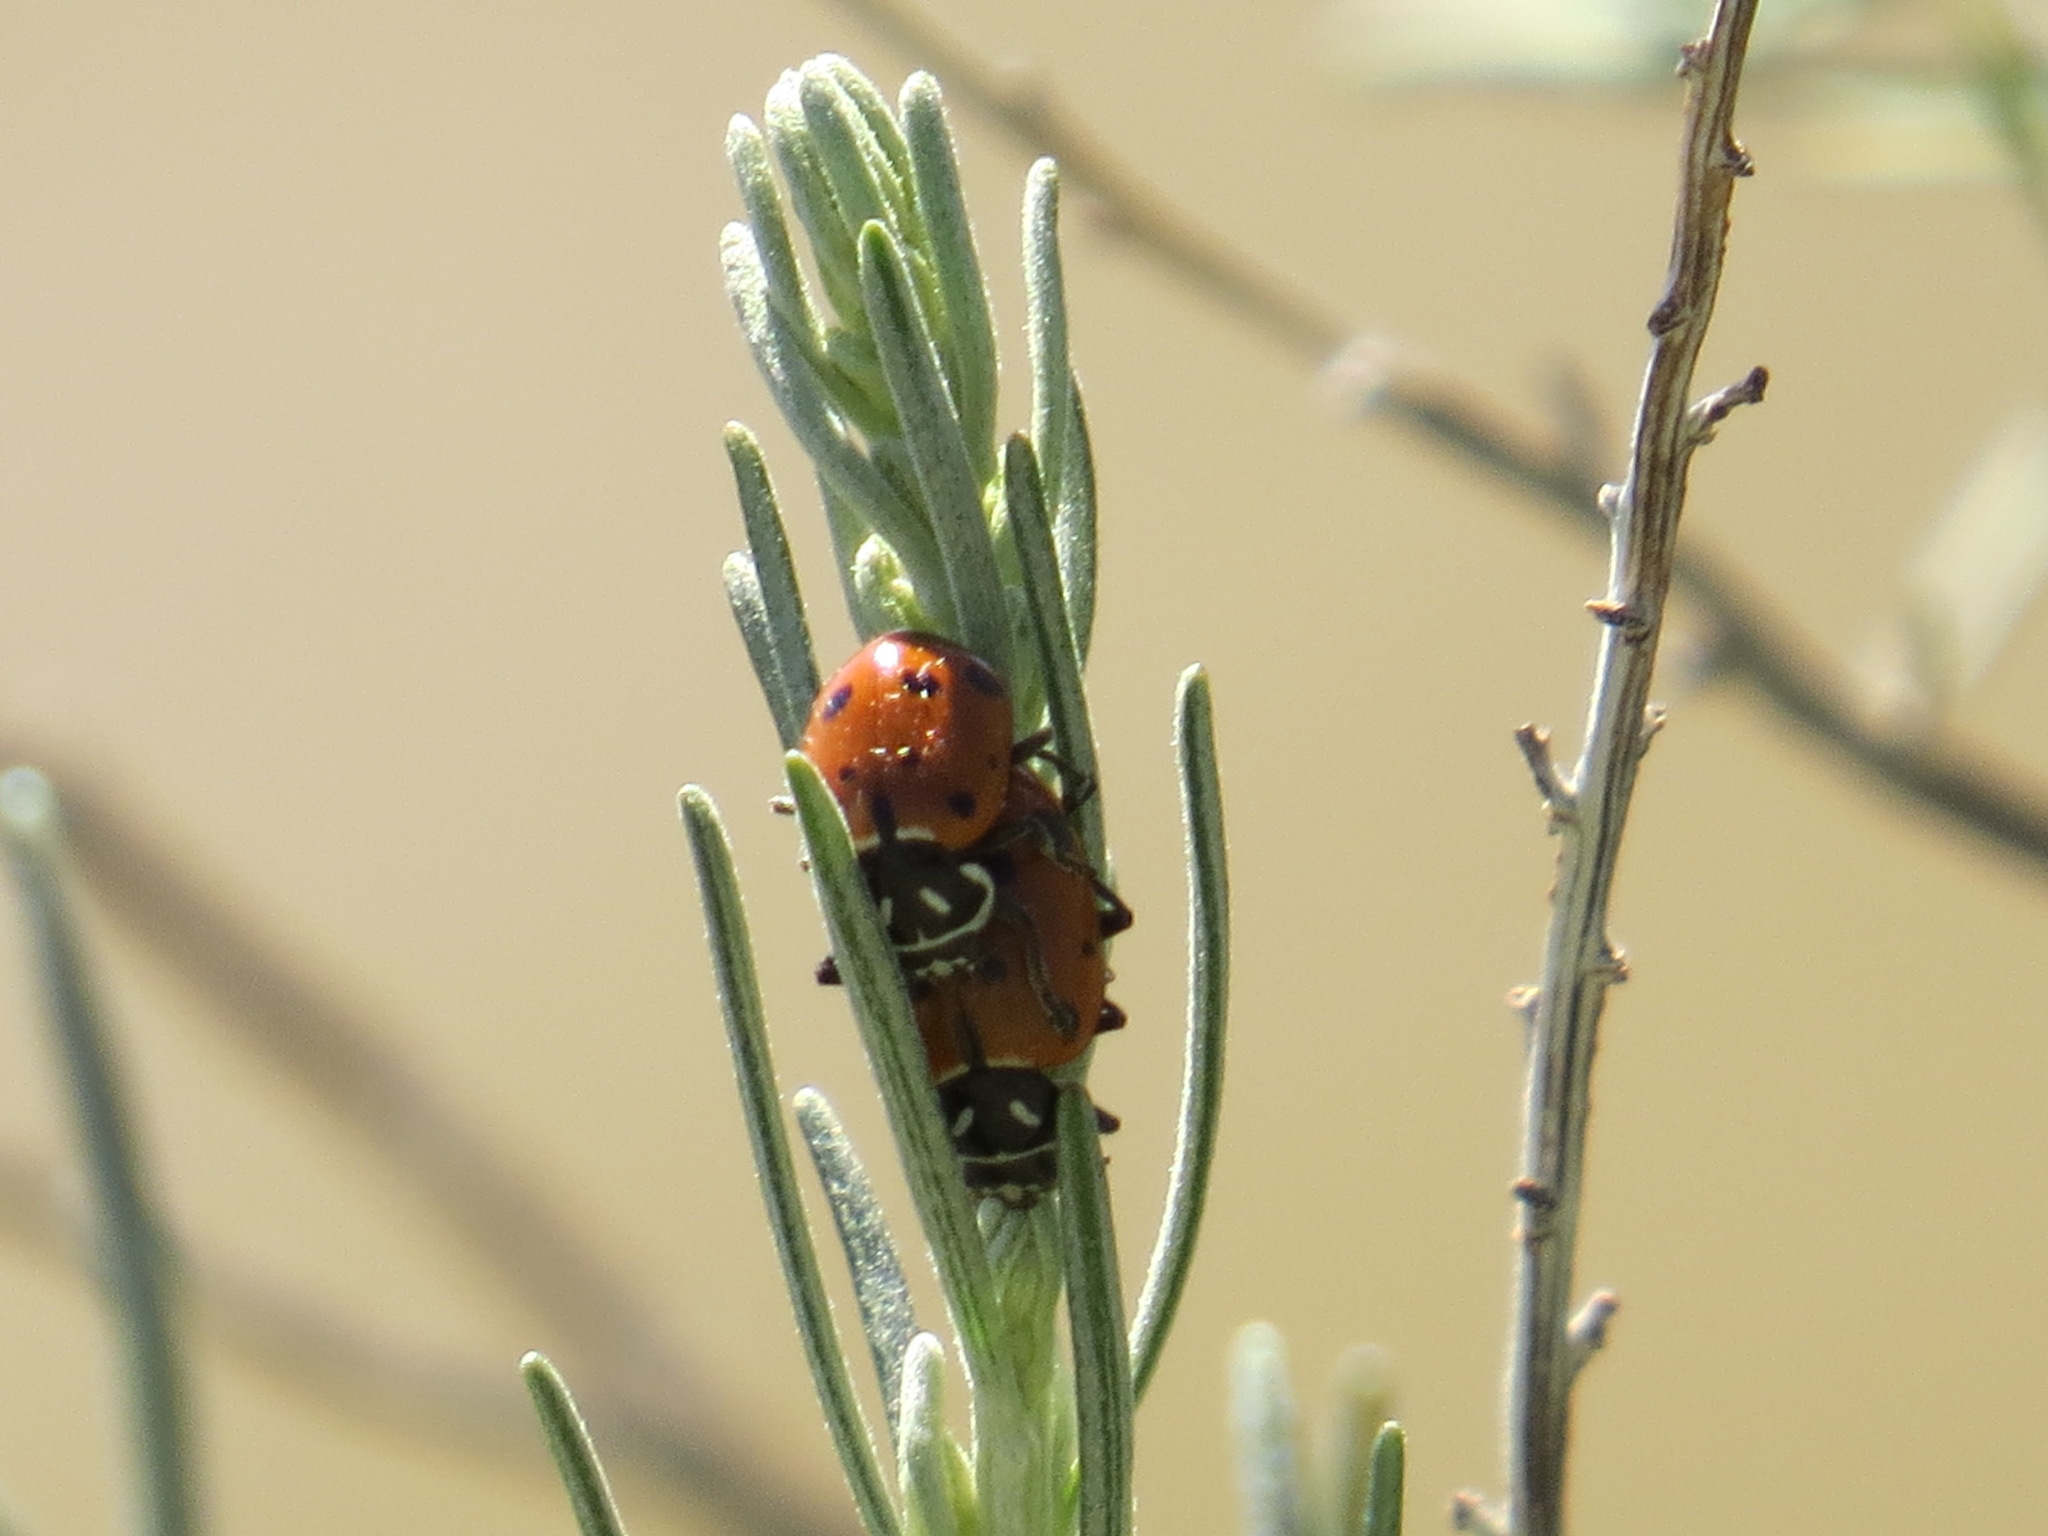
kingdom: Animalia
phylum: Arthropoda
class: Insecta
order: Coleoptera
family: Coccinellidae
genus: Hippodamia
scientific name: Hippodamia convergens
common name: Convergent lady beetle
